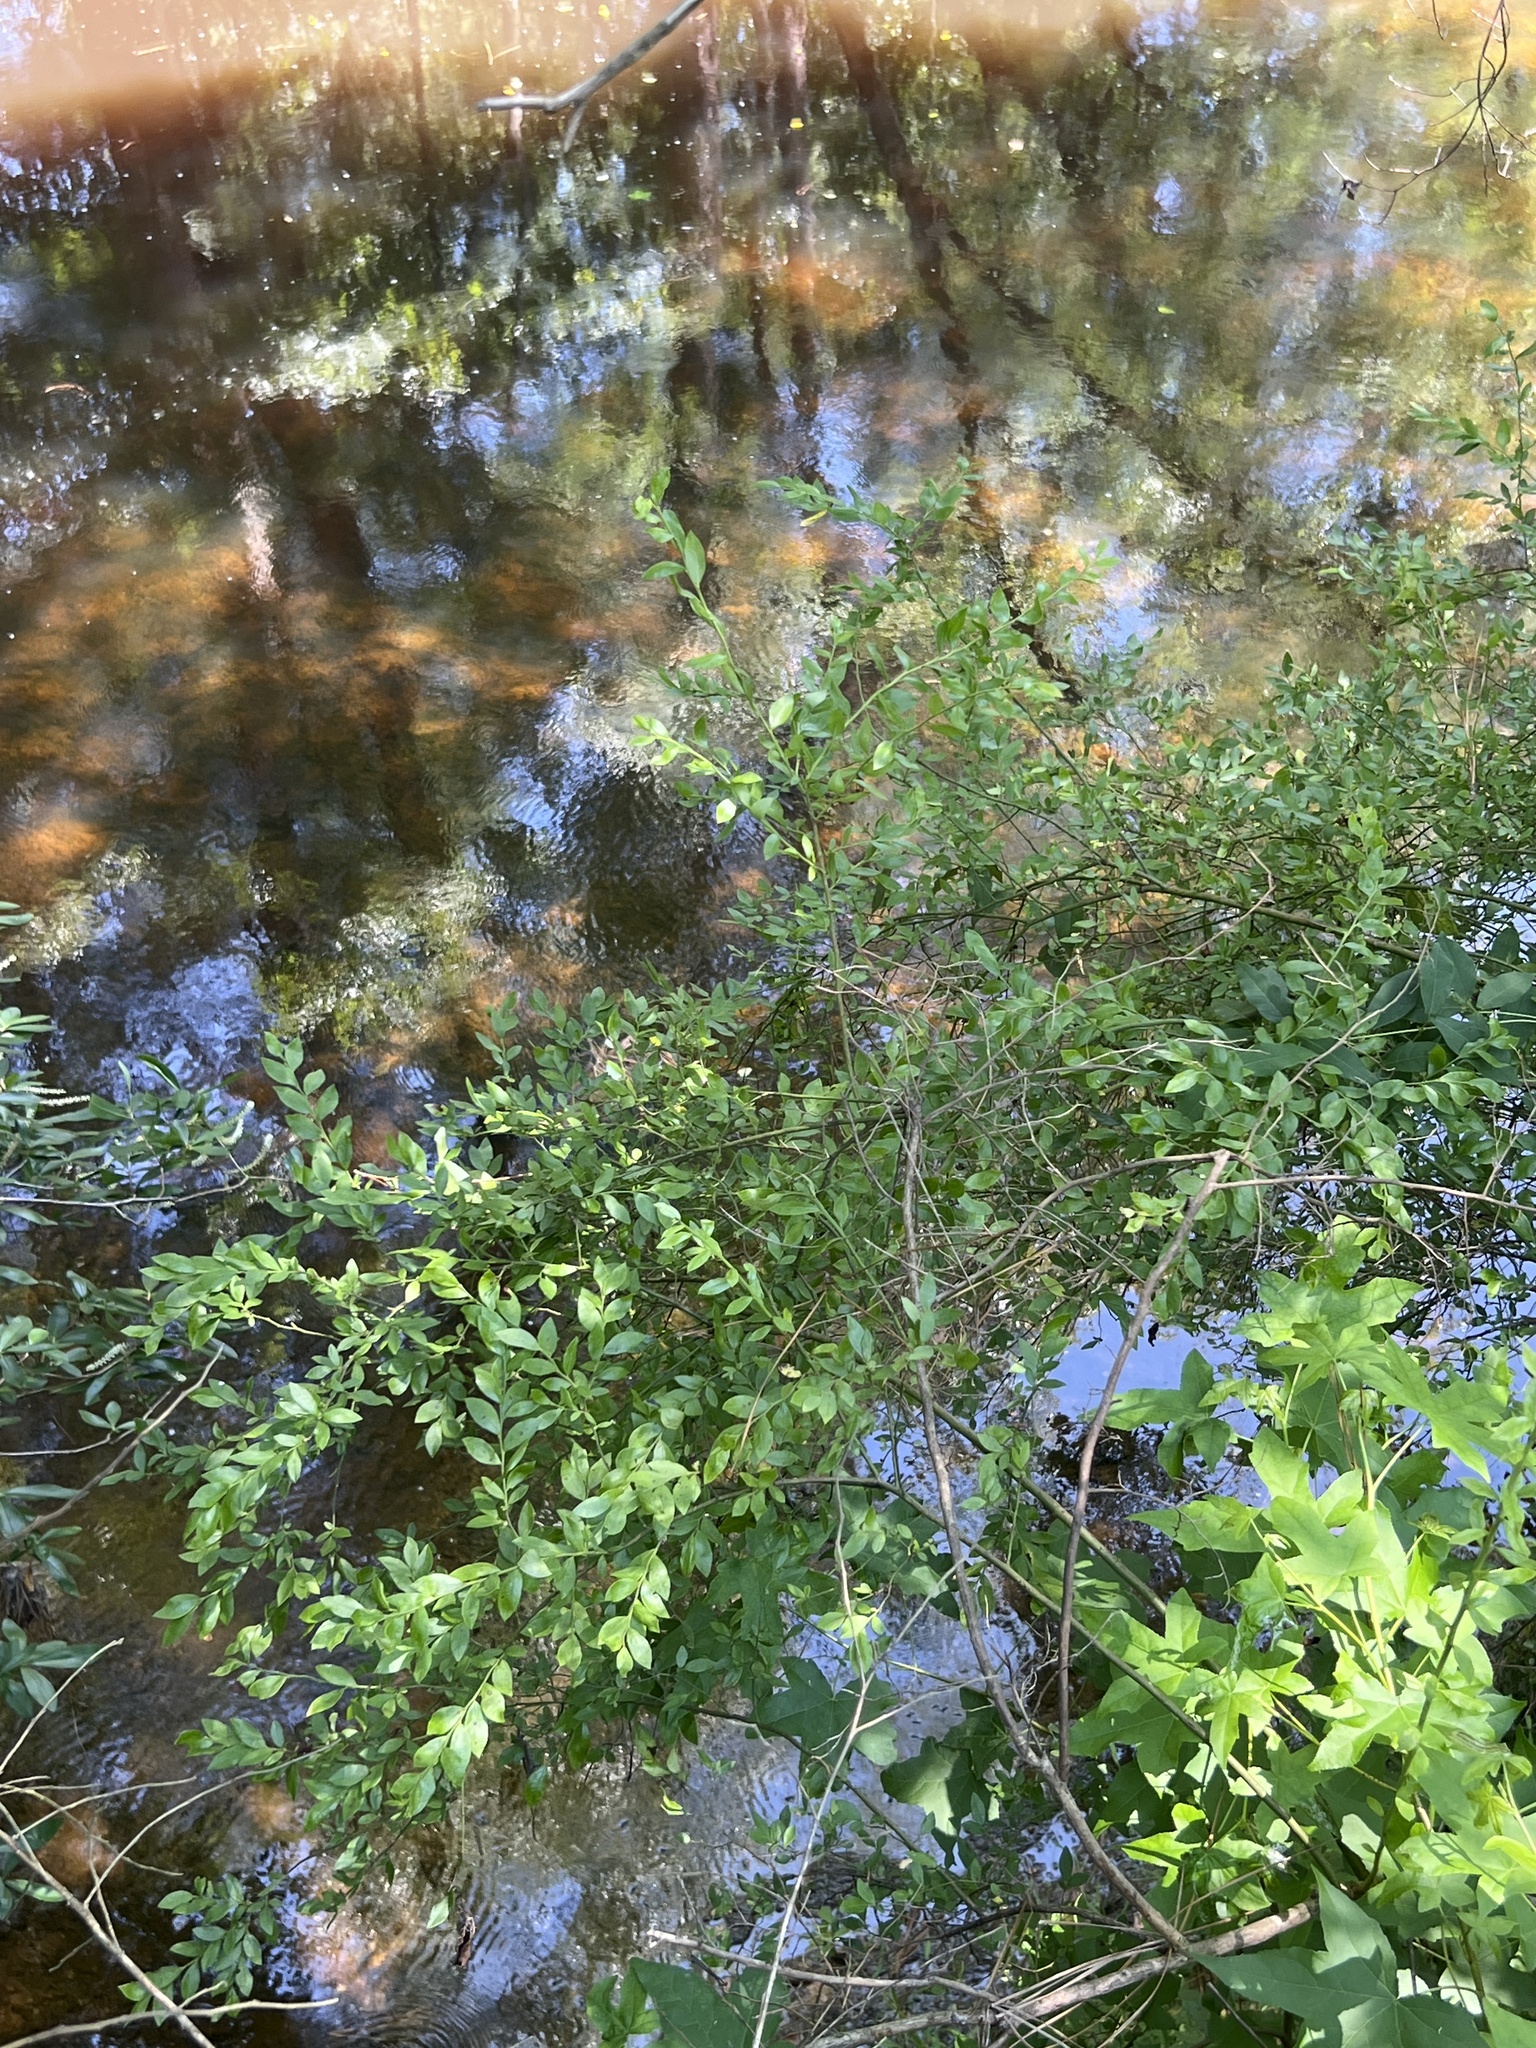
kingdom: Plantae
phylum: Tracheophyta
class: Magnoliopsida
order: Ericales
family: Ericaceae
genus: Vaccinium
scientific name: Vaccinium corymbosum
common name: Blueberry
